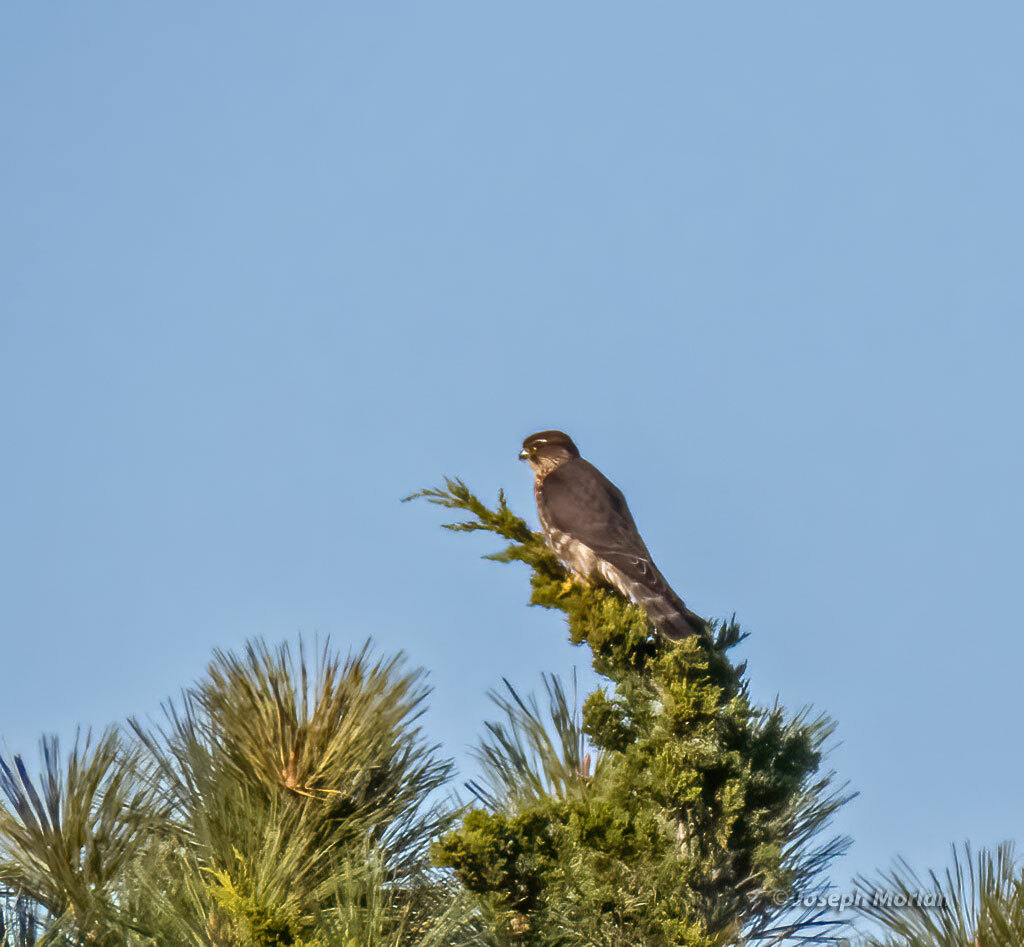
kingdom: Animalia
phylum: Chordata
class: Aves
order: Falconiformes
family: Falconidae
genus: Falco
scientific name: Falco columbarius
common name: Merlin
